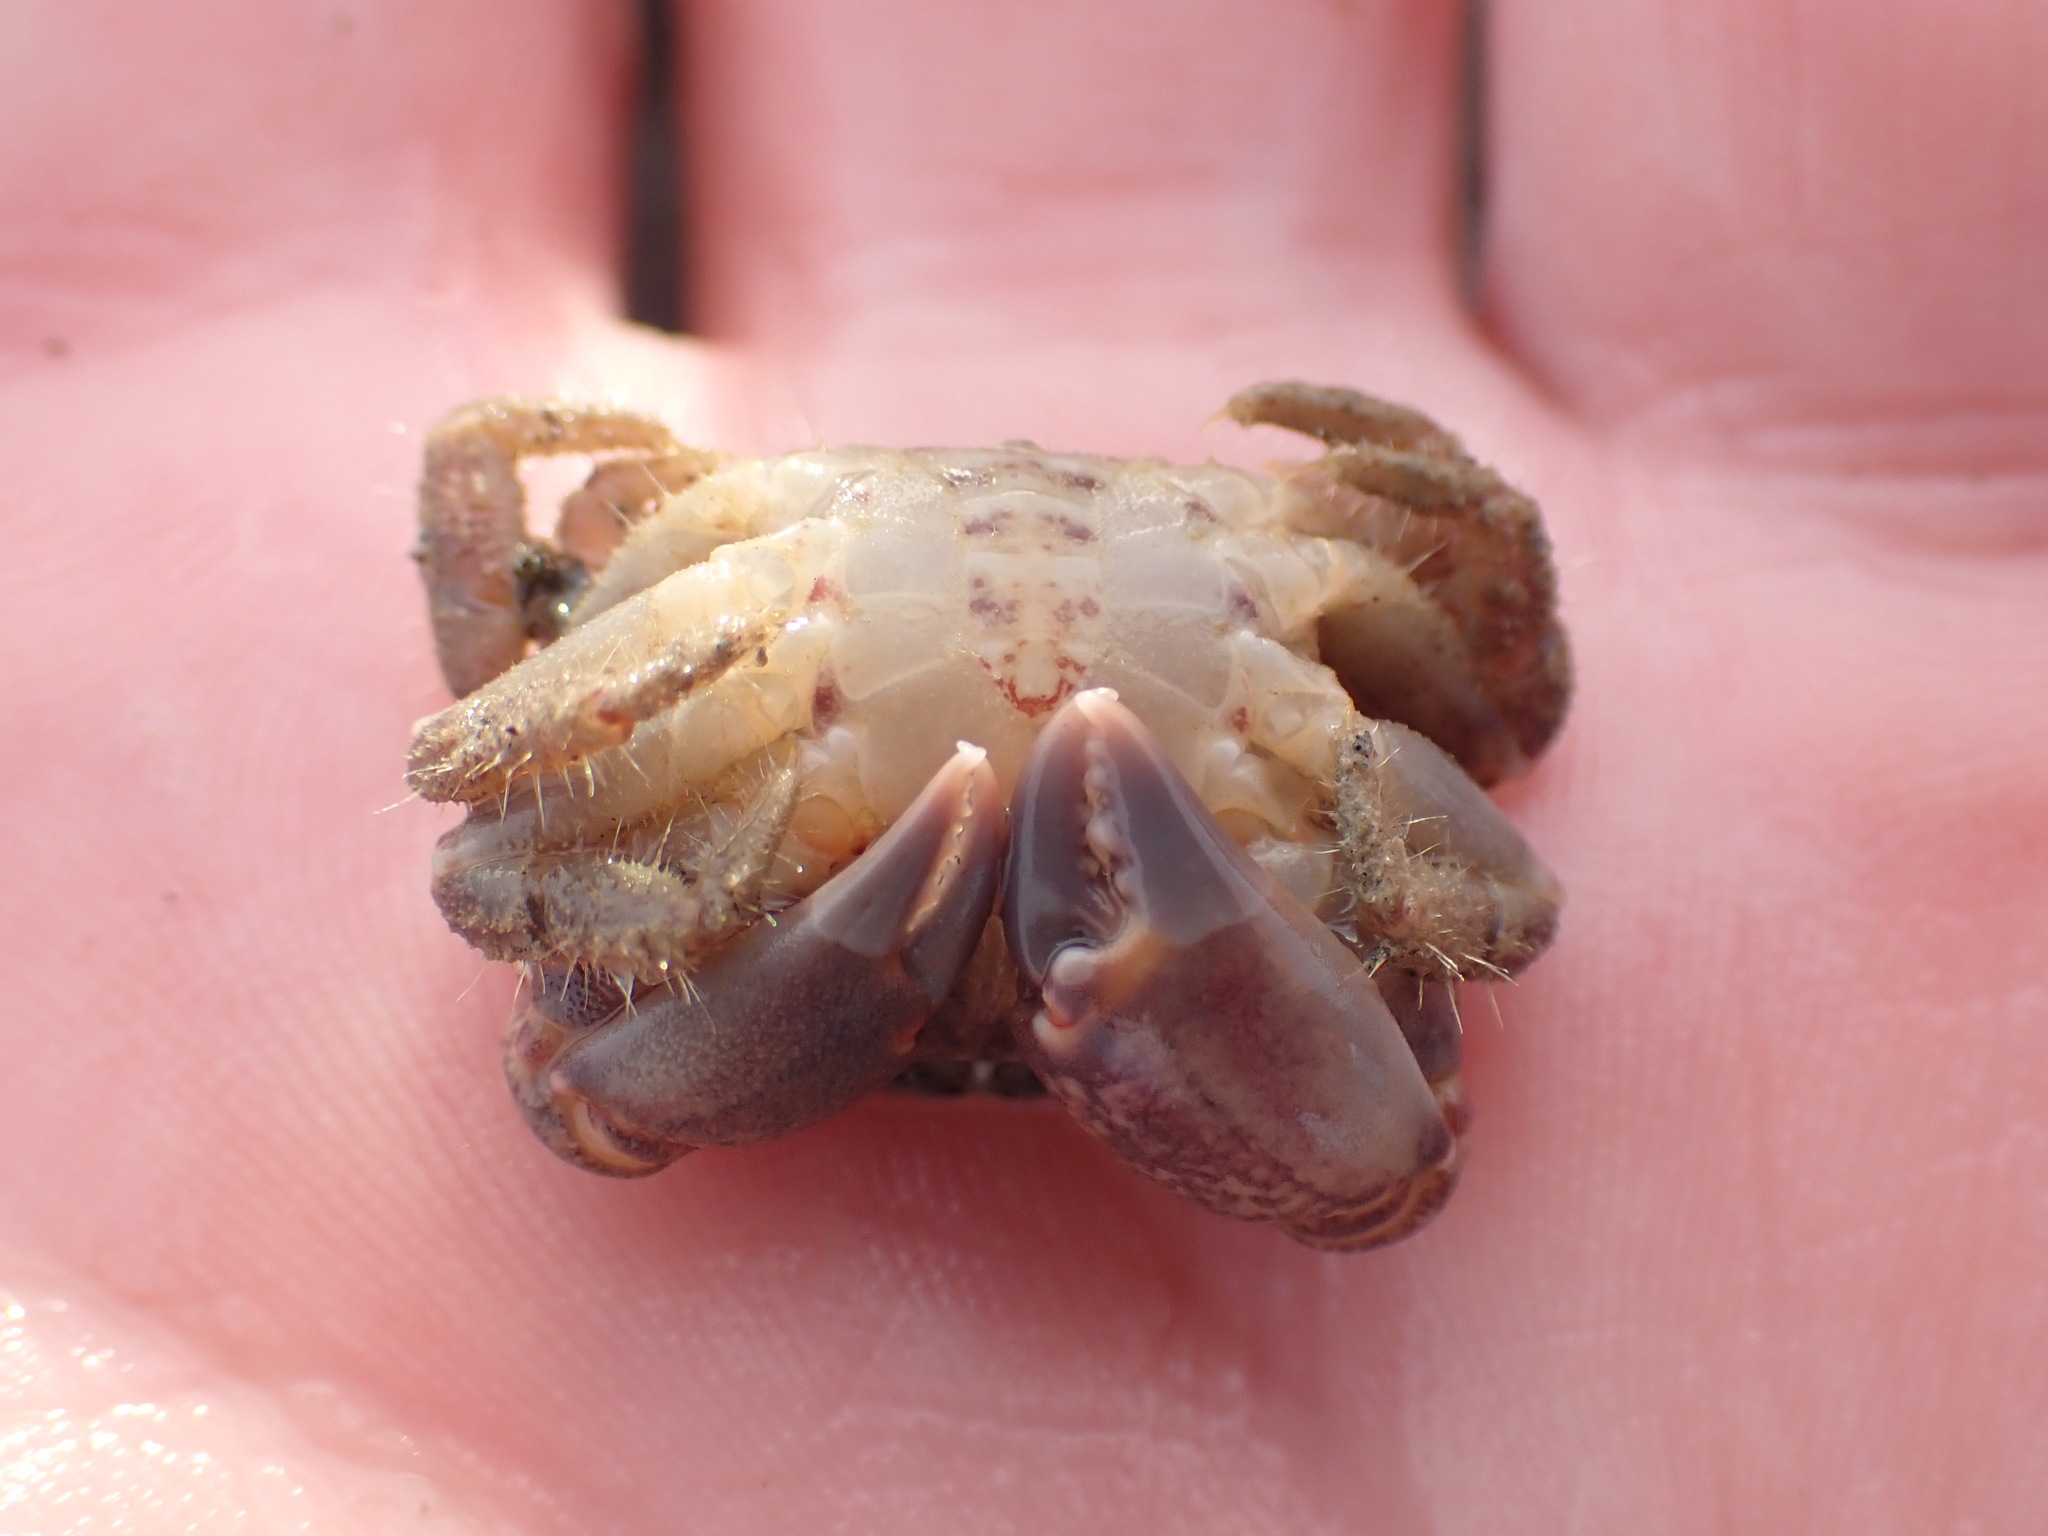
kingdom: Animalia
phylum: Arthropoda
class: Malacostraca
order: Decapoda
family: Oziidae
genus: Ozius
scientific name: Ozius deplanatus
